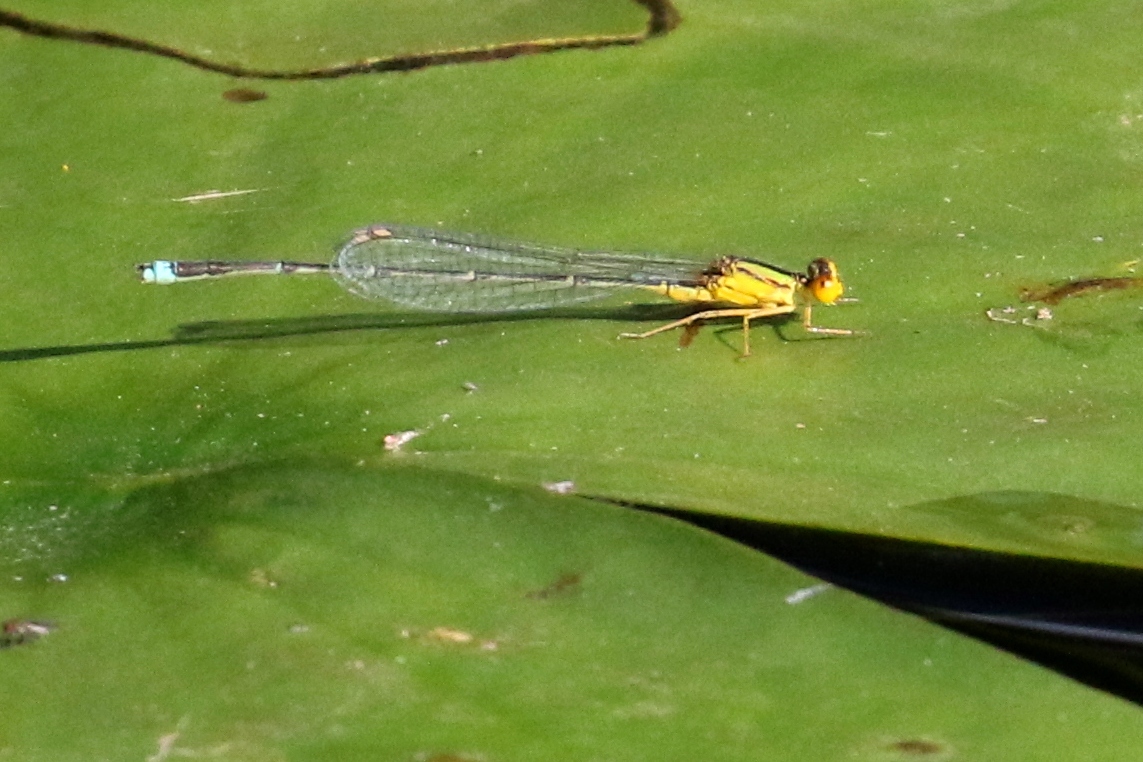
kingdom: Animalia
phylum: Arthropoda
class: Insecta
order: Odonata
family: Coenagrionidae
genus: Enallagma
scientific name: Enallagma vesperum
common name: Vesper bluet
